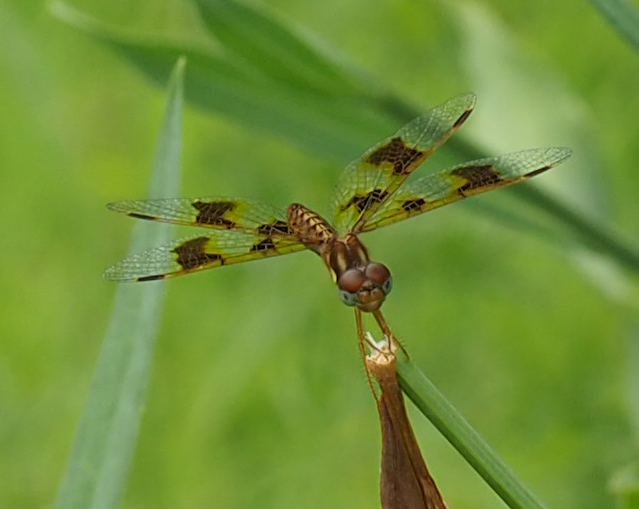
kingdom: Animalia
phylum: Arthropoda
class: Insecta
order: Odonata
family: Libellulidae
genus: Perithemis
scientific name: Perithemis tenera
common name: Eastern amberwing
